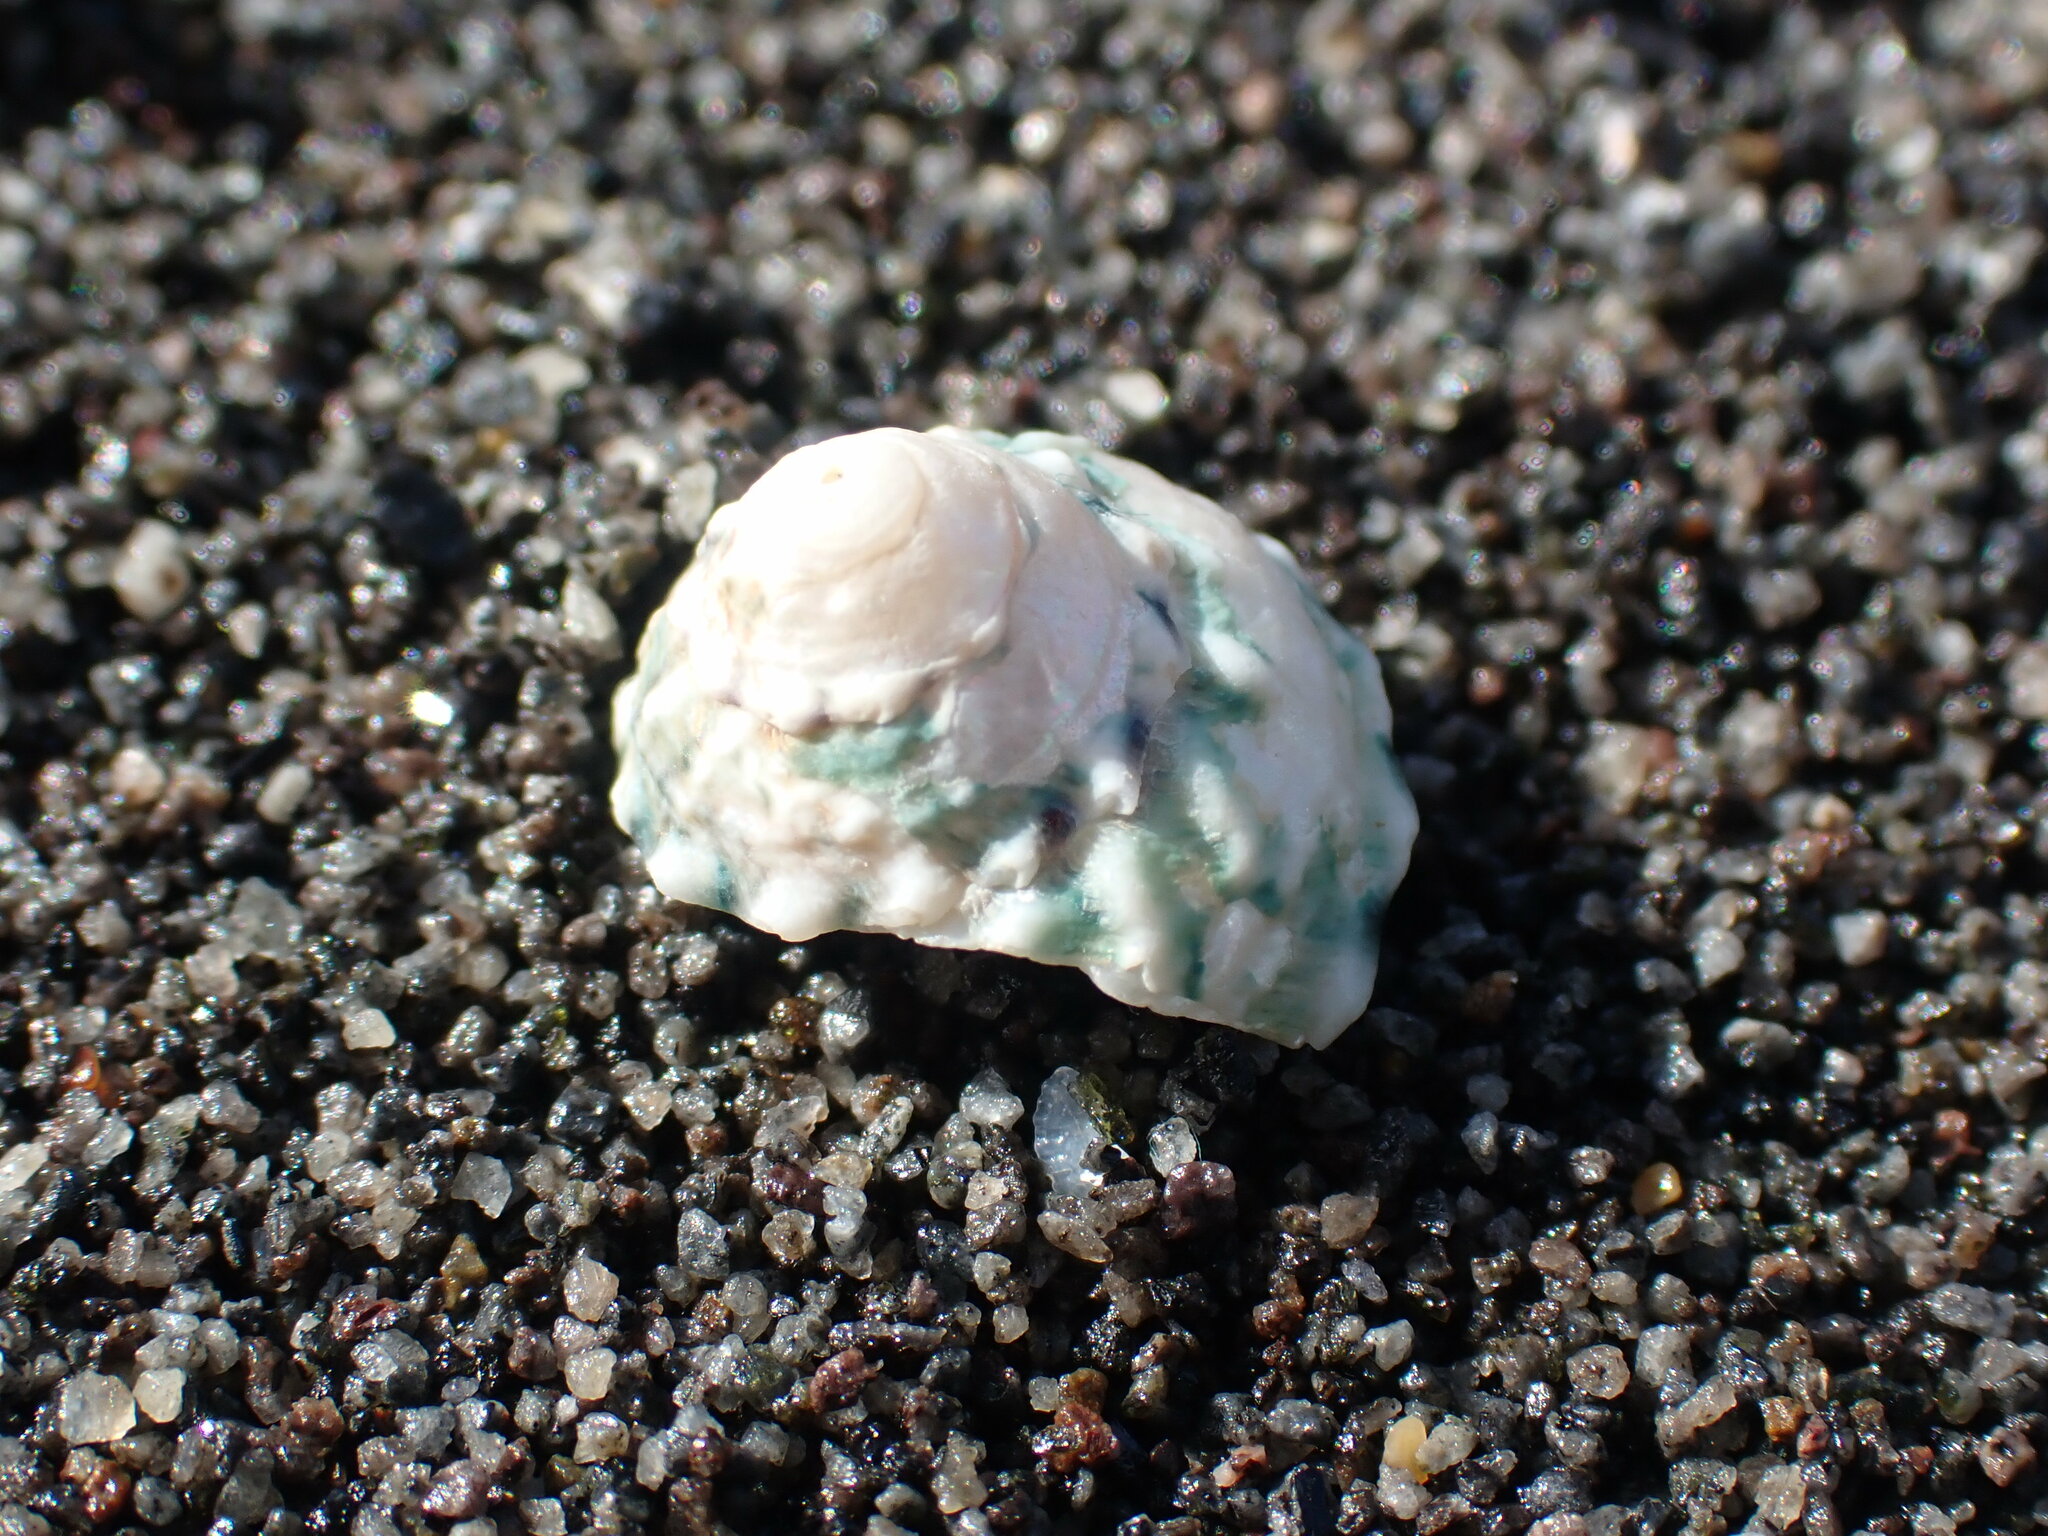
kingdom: Animalia
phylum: Mollusca
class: Gastropoda
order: Trochida
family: Trochidae
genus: Coelotrochus
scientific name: Coelotrochus viridis
